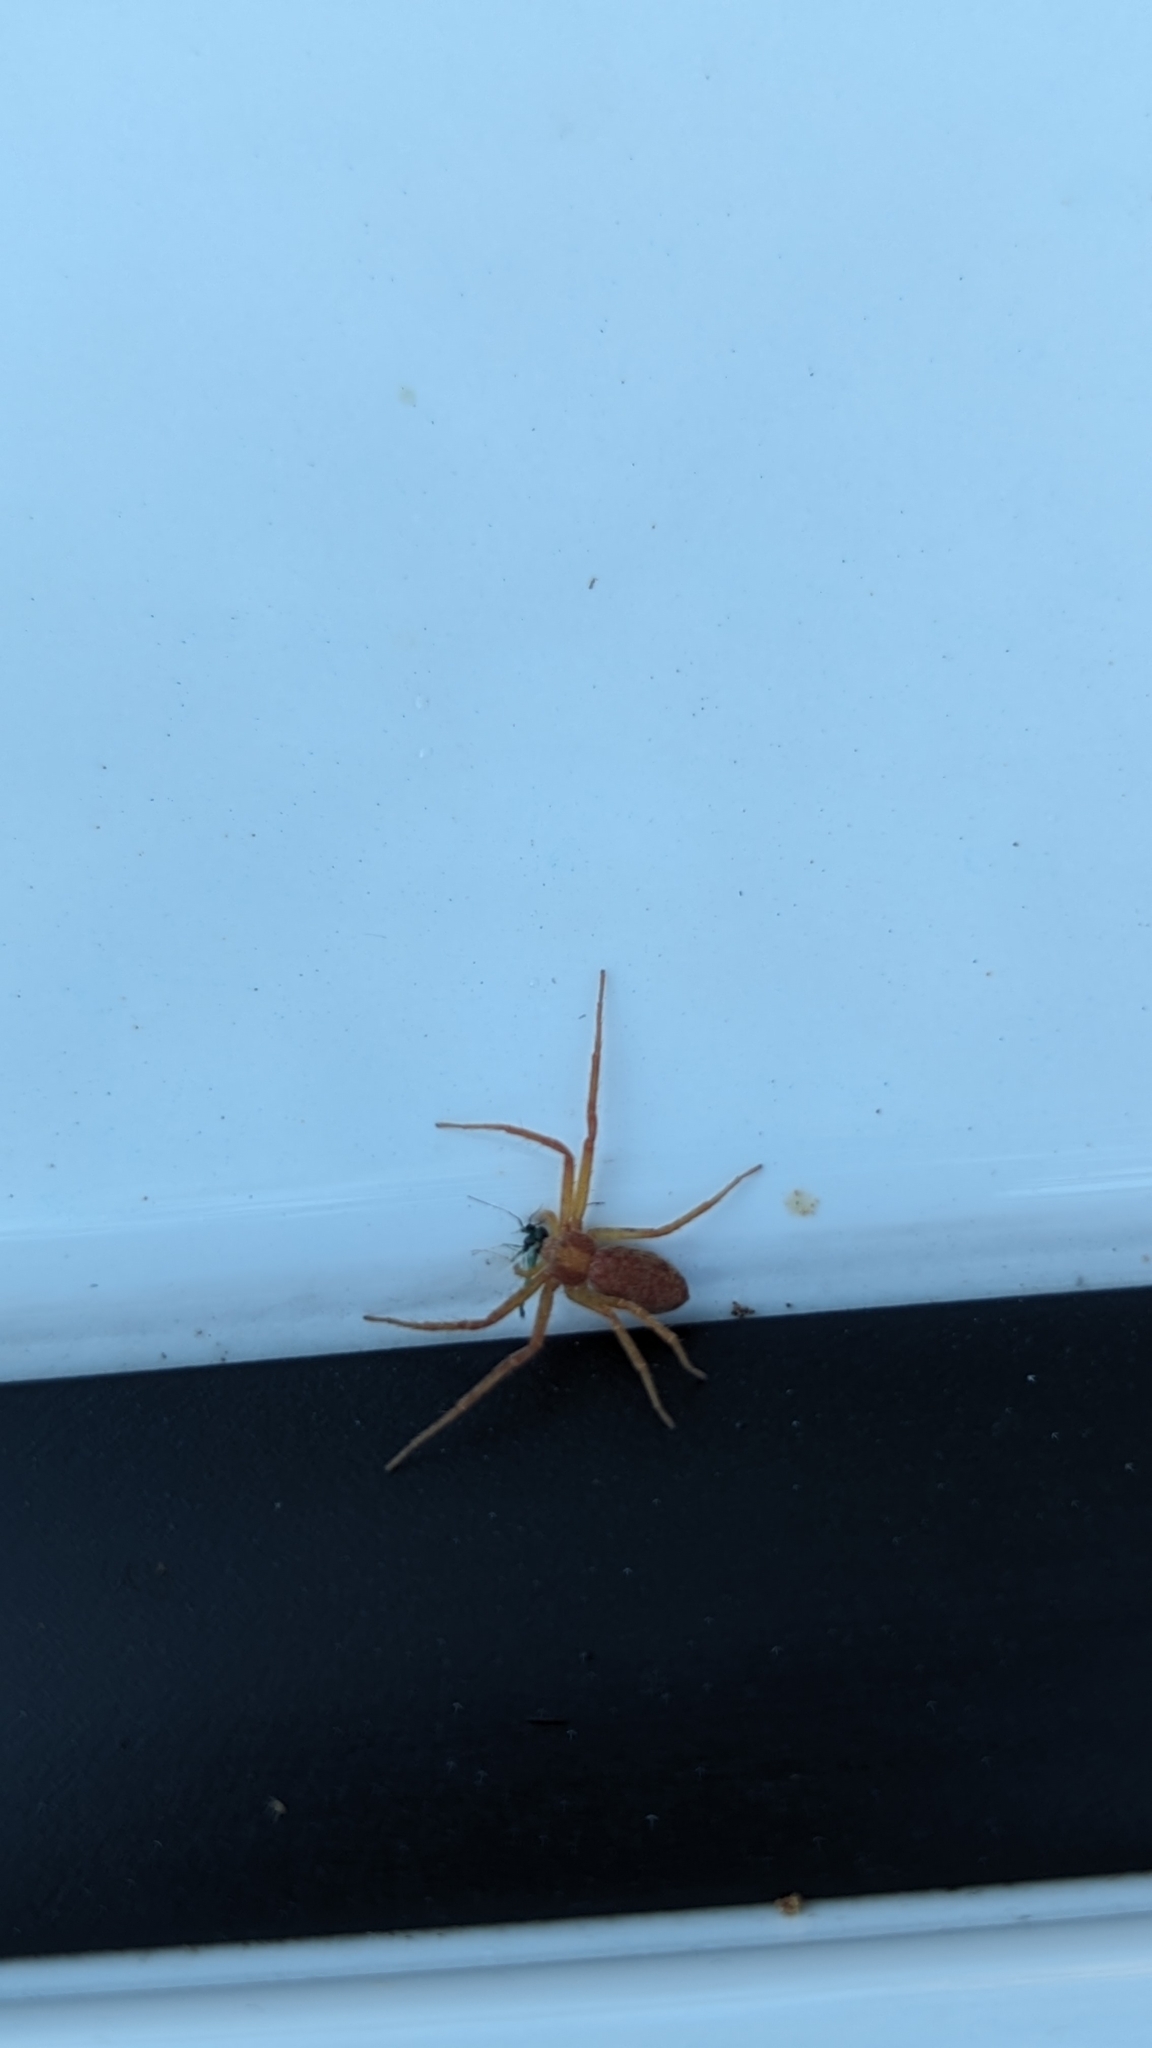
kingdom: Animalia
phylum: Arthropoda
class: Arachnida
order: Araneae
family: Philodromidae
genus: Philodromus
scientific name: Philodromus rufus
